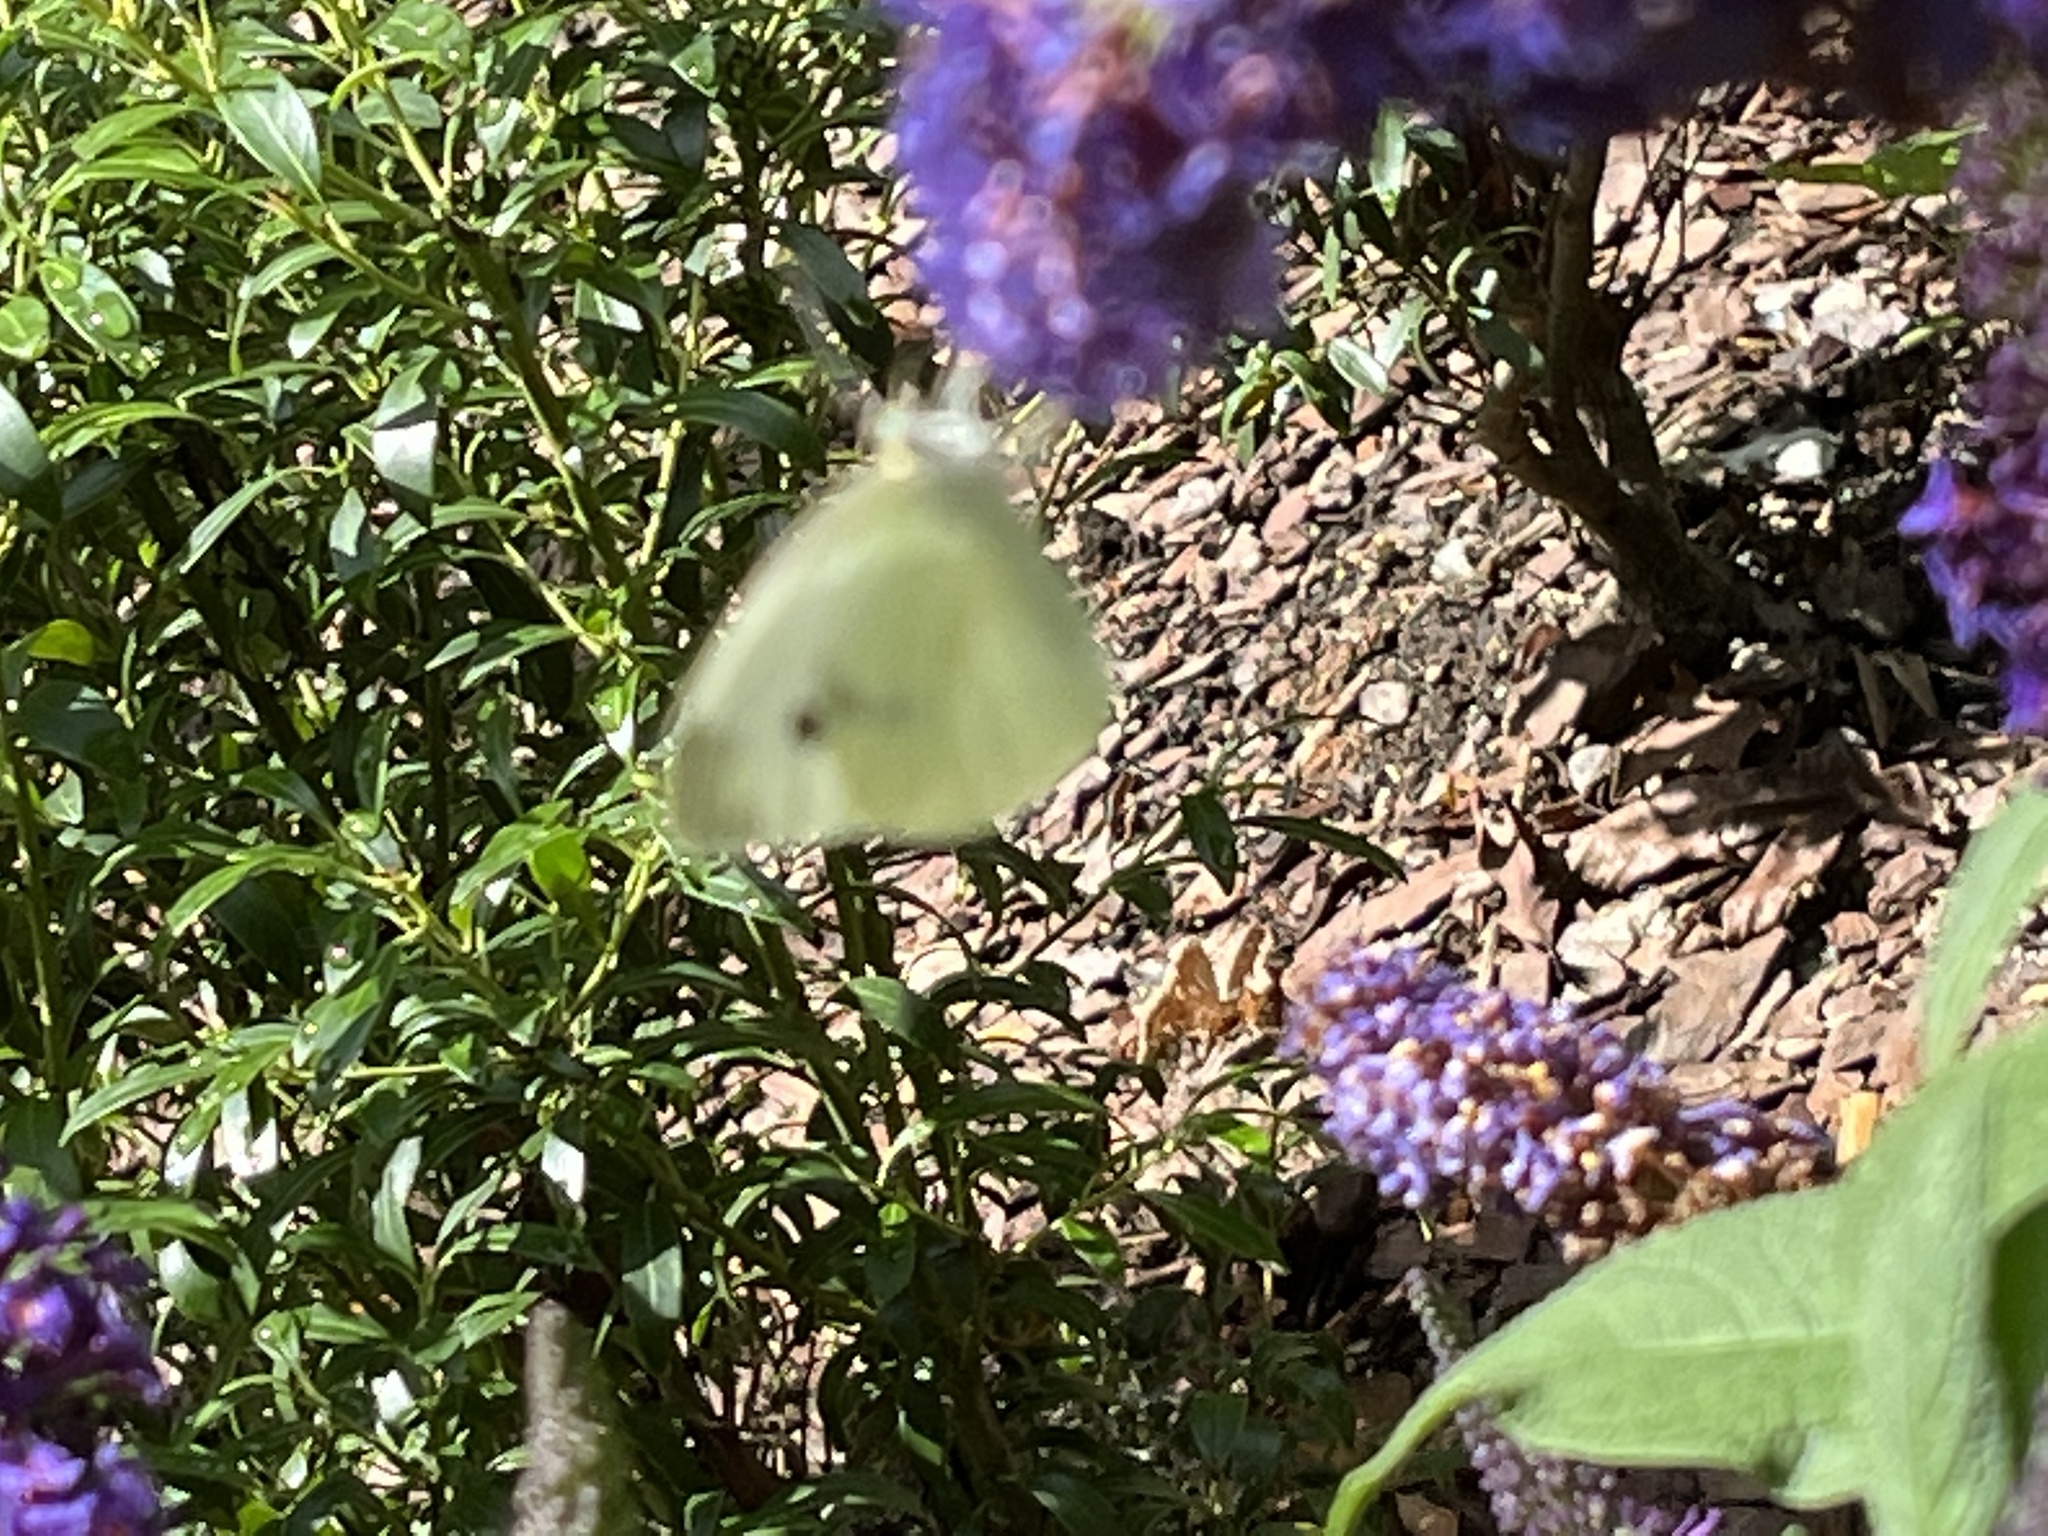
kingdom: Animalia
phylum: Arthropoda
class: Insecta
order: Lepidoptera
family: Pieridae
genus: Pieris
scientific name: Pieris rapae
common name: Small white
